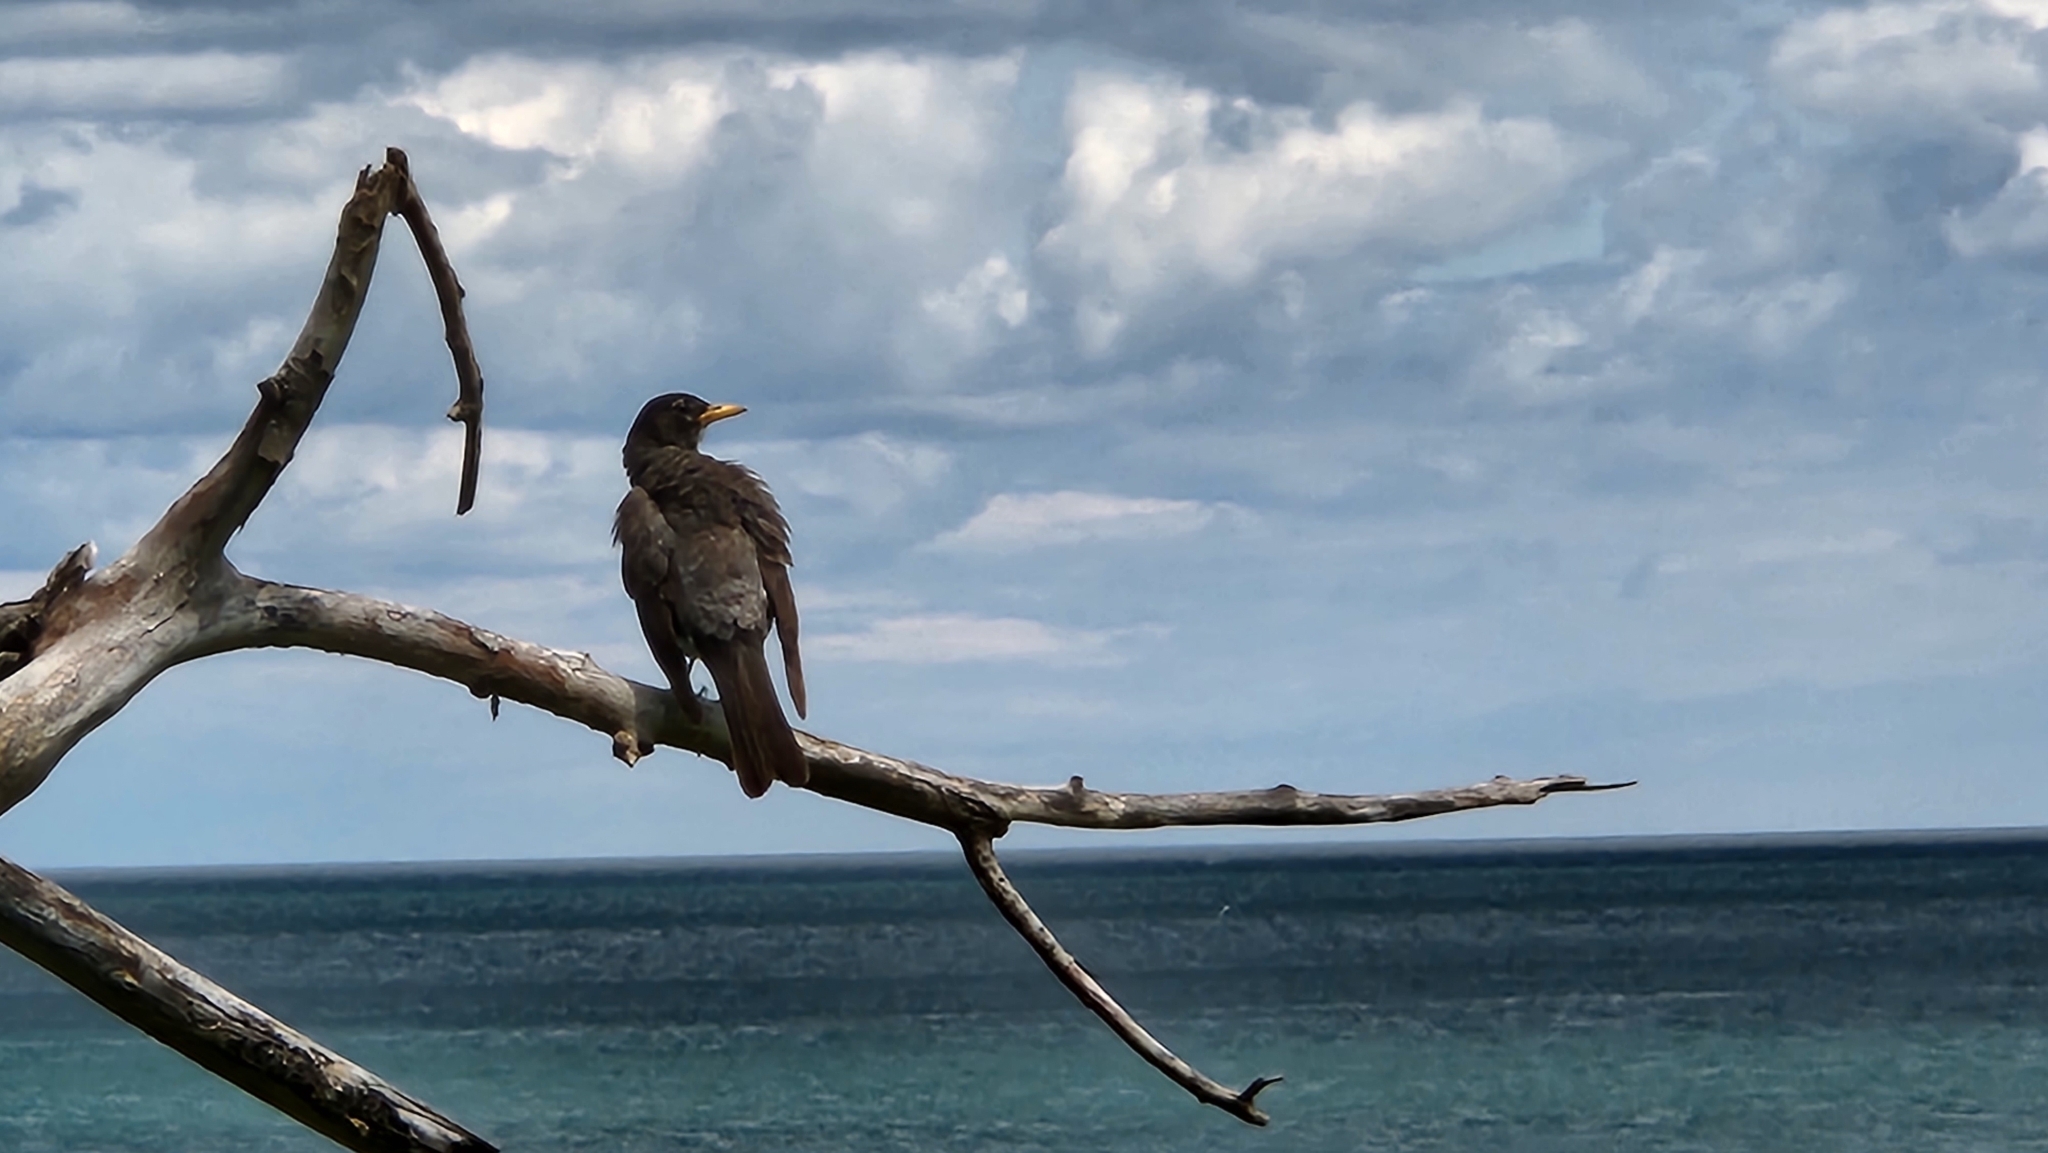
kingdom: Animalia
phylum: Chordata
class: Aves
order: Passeriformes
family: Turdidae
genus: Turdus
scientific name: Turdus migratorius
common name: American robin
